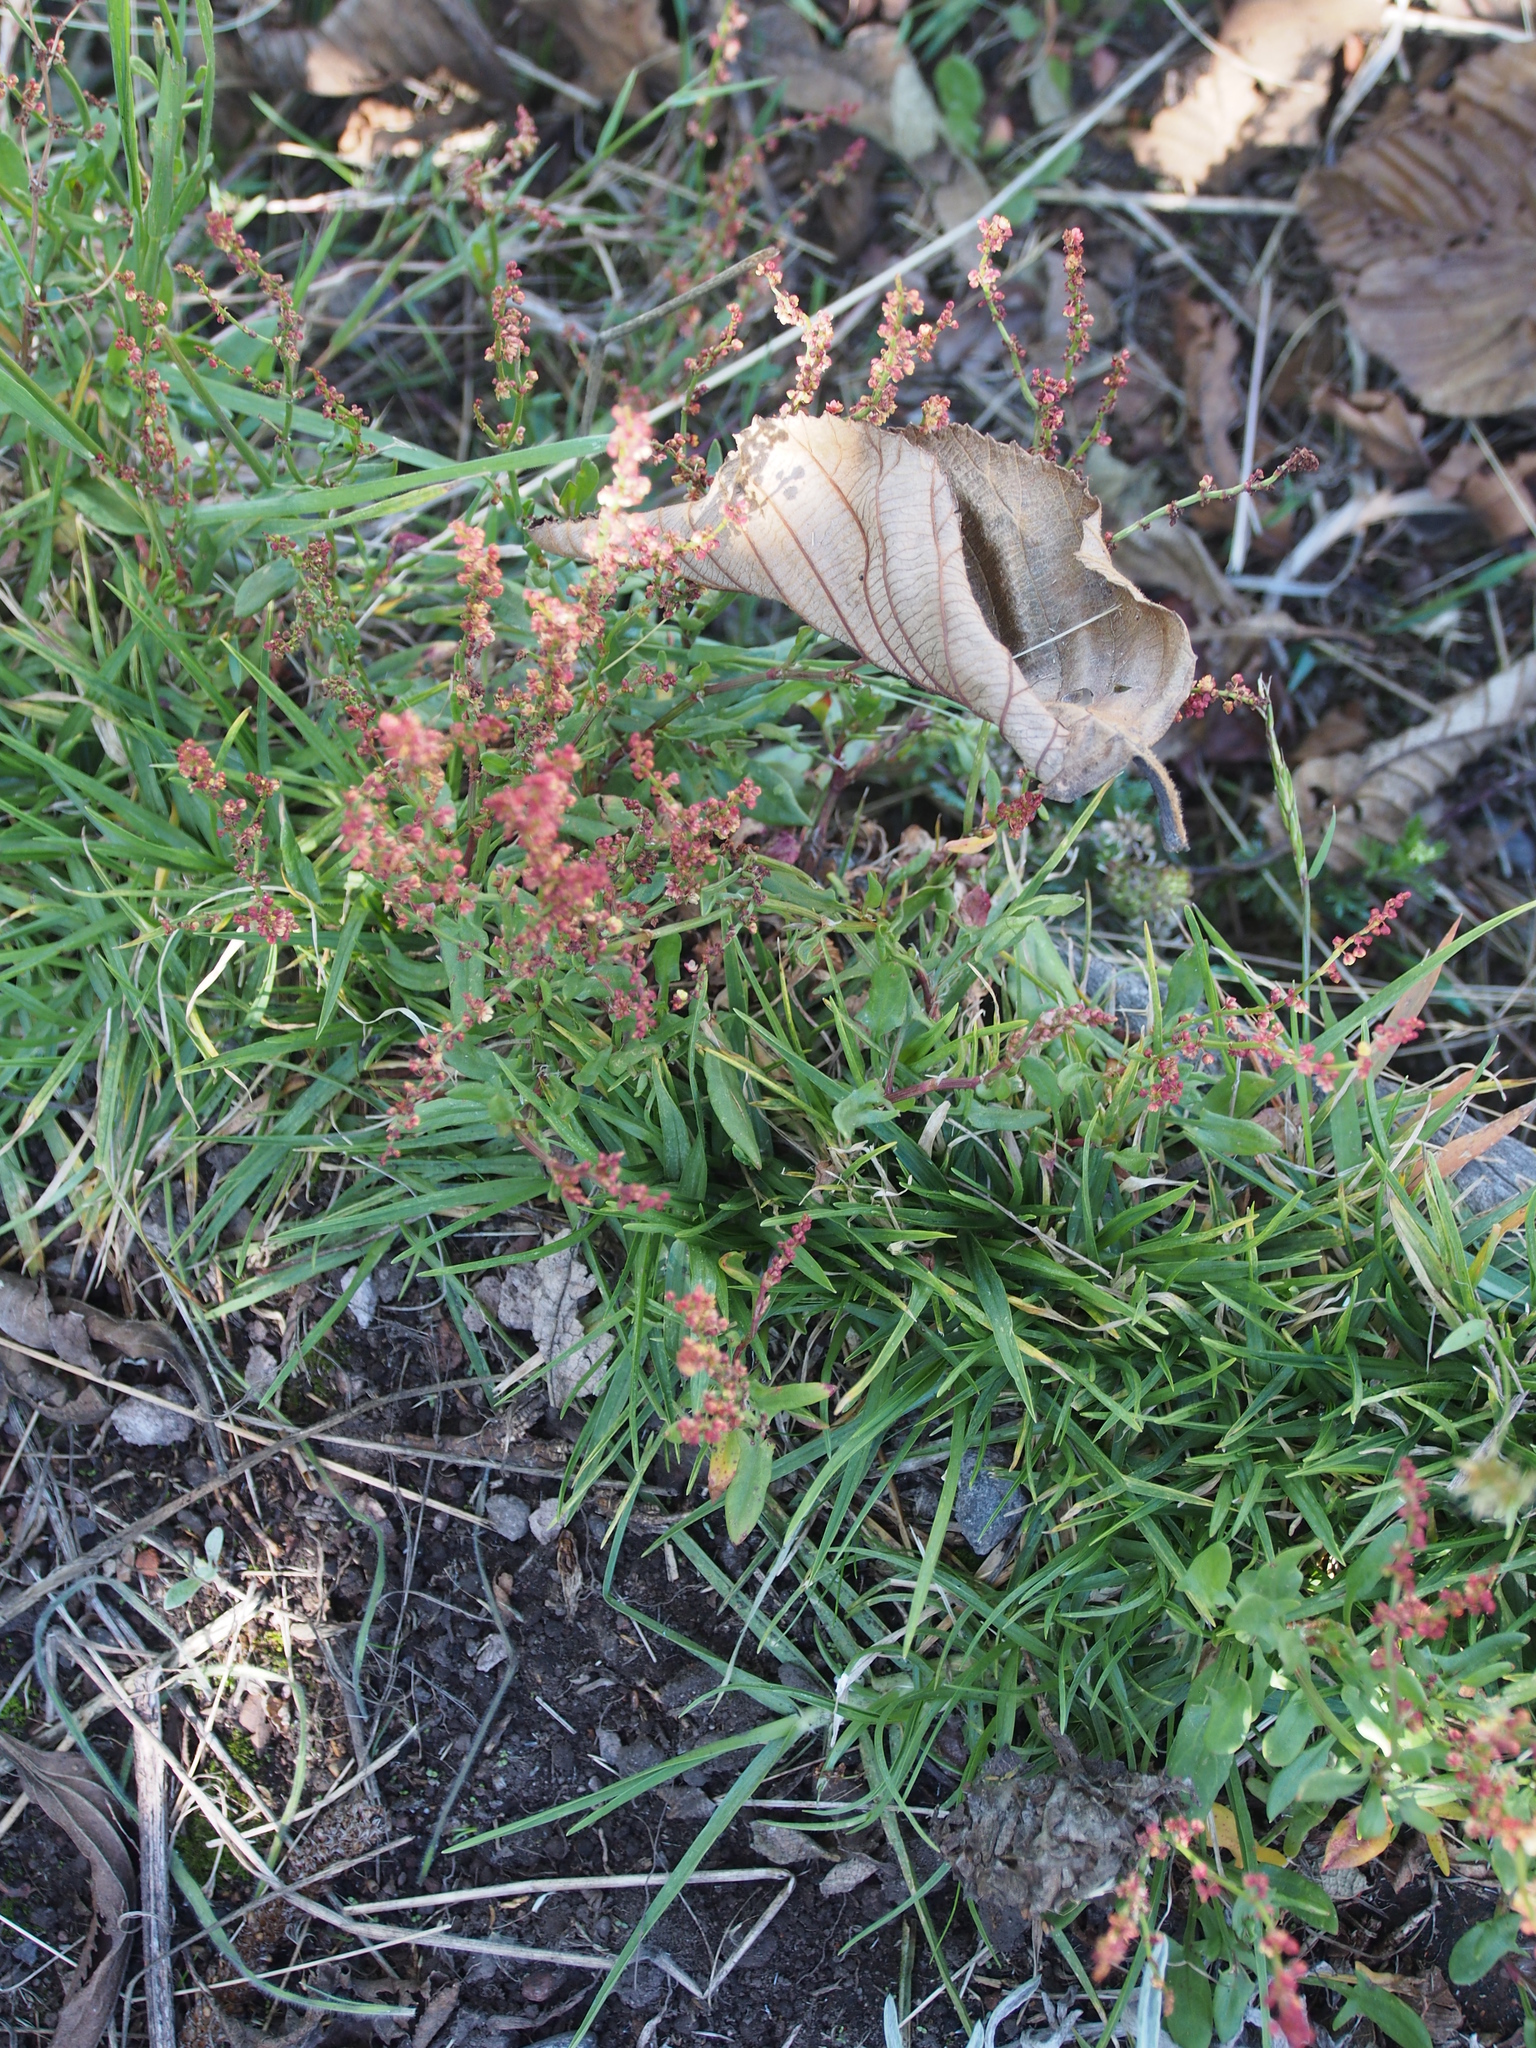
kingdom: Plantae
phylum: Tracheophyta
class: Magnoliopsida
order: Caryophyllales
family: Polygonaceae
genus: Rumex
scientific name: Rumex acetosella
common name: Common sheep sorrel
